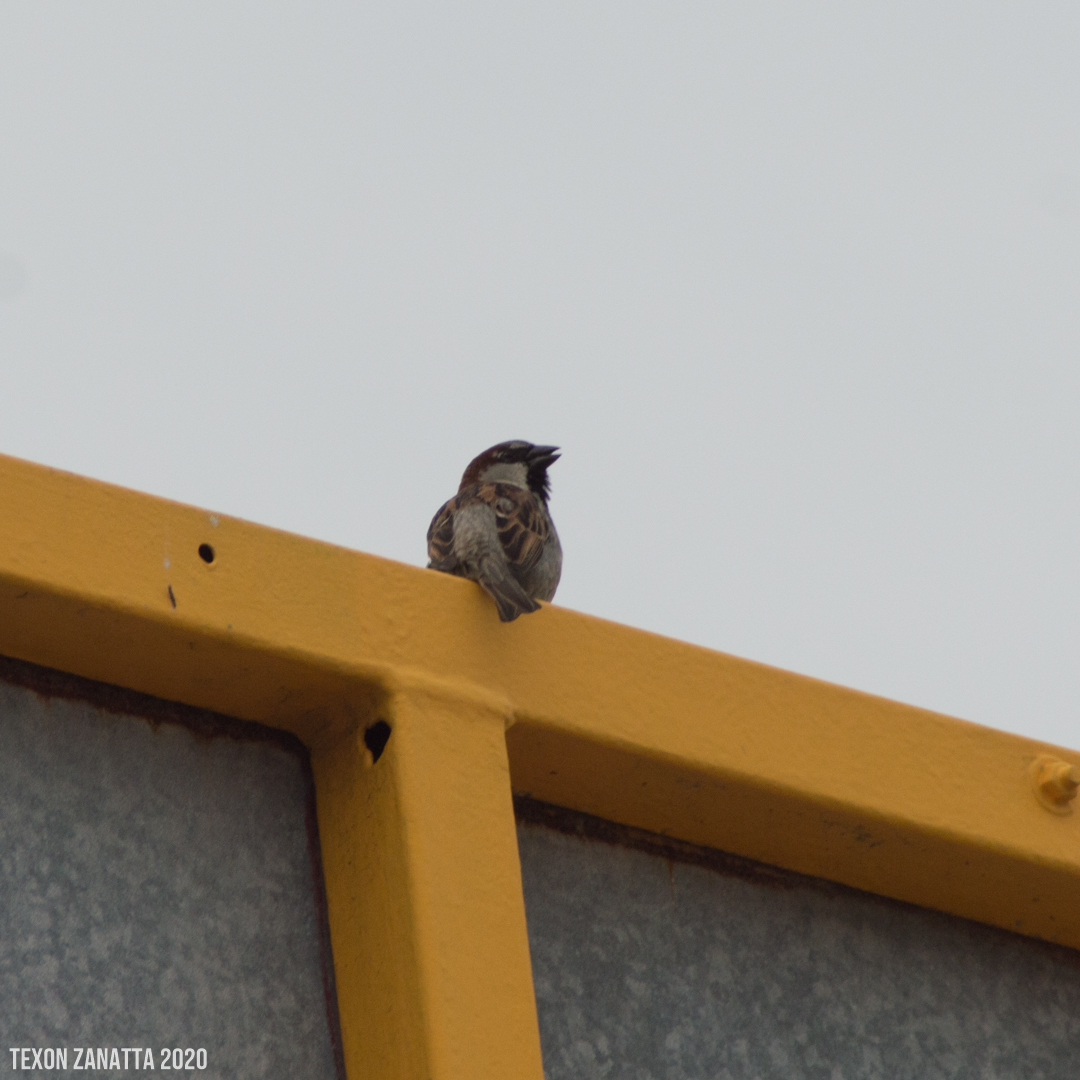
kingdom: Animalia
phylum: Chordata
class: Aves
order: Passeriformes
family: Passeridae
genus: Passer
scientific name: Passer domesticus
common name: House sparrow
